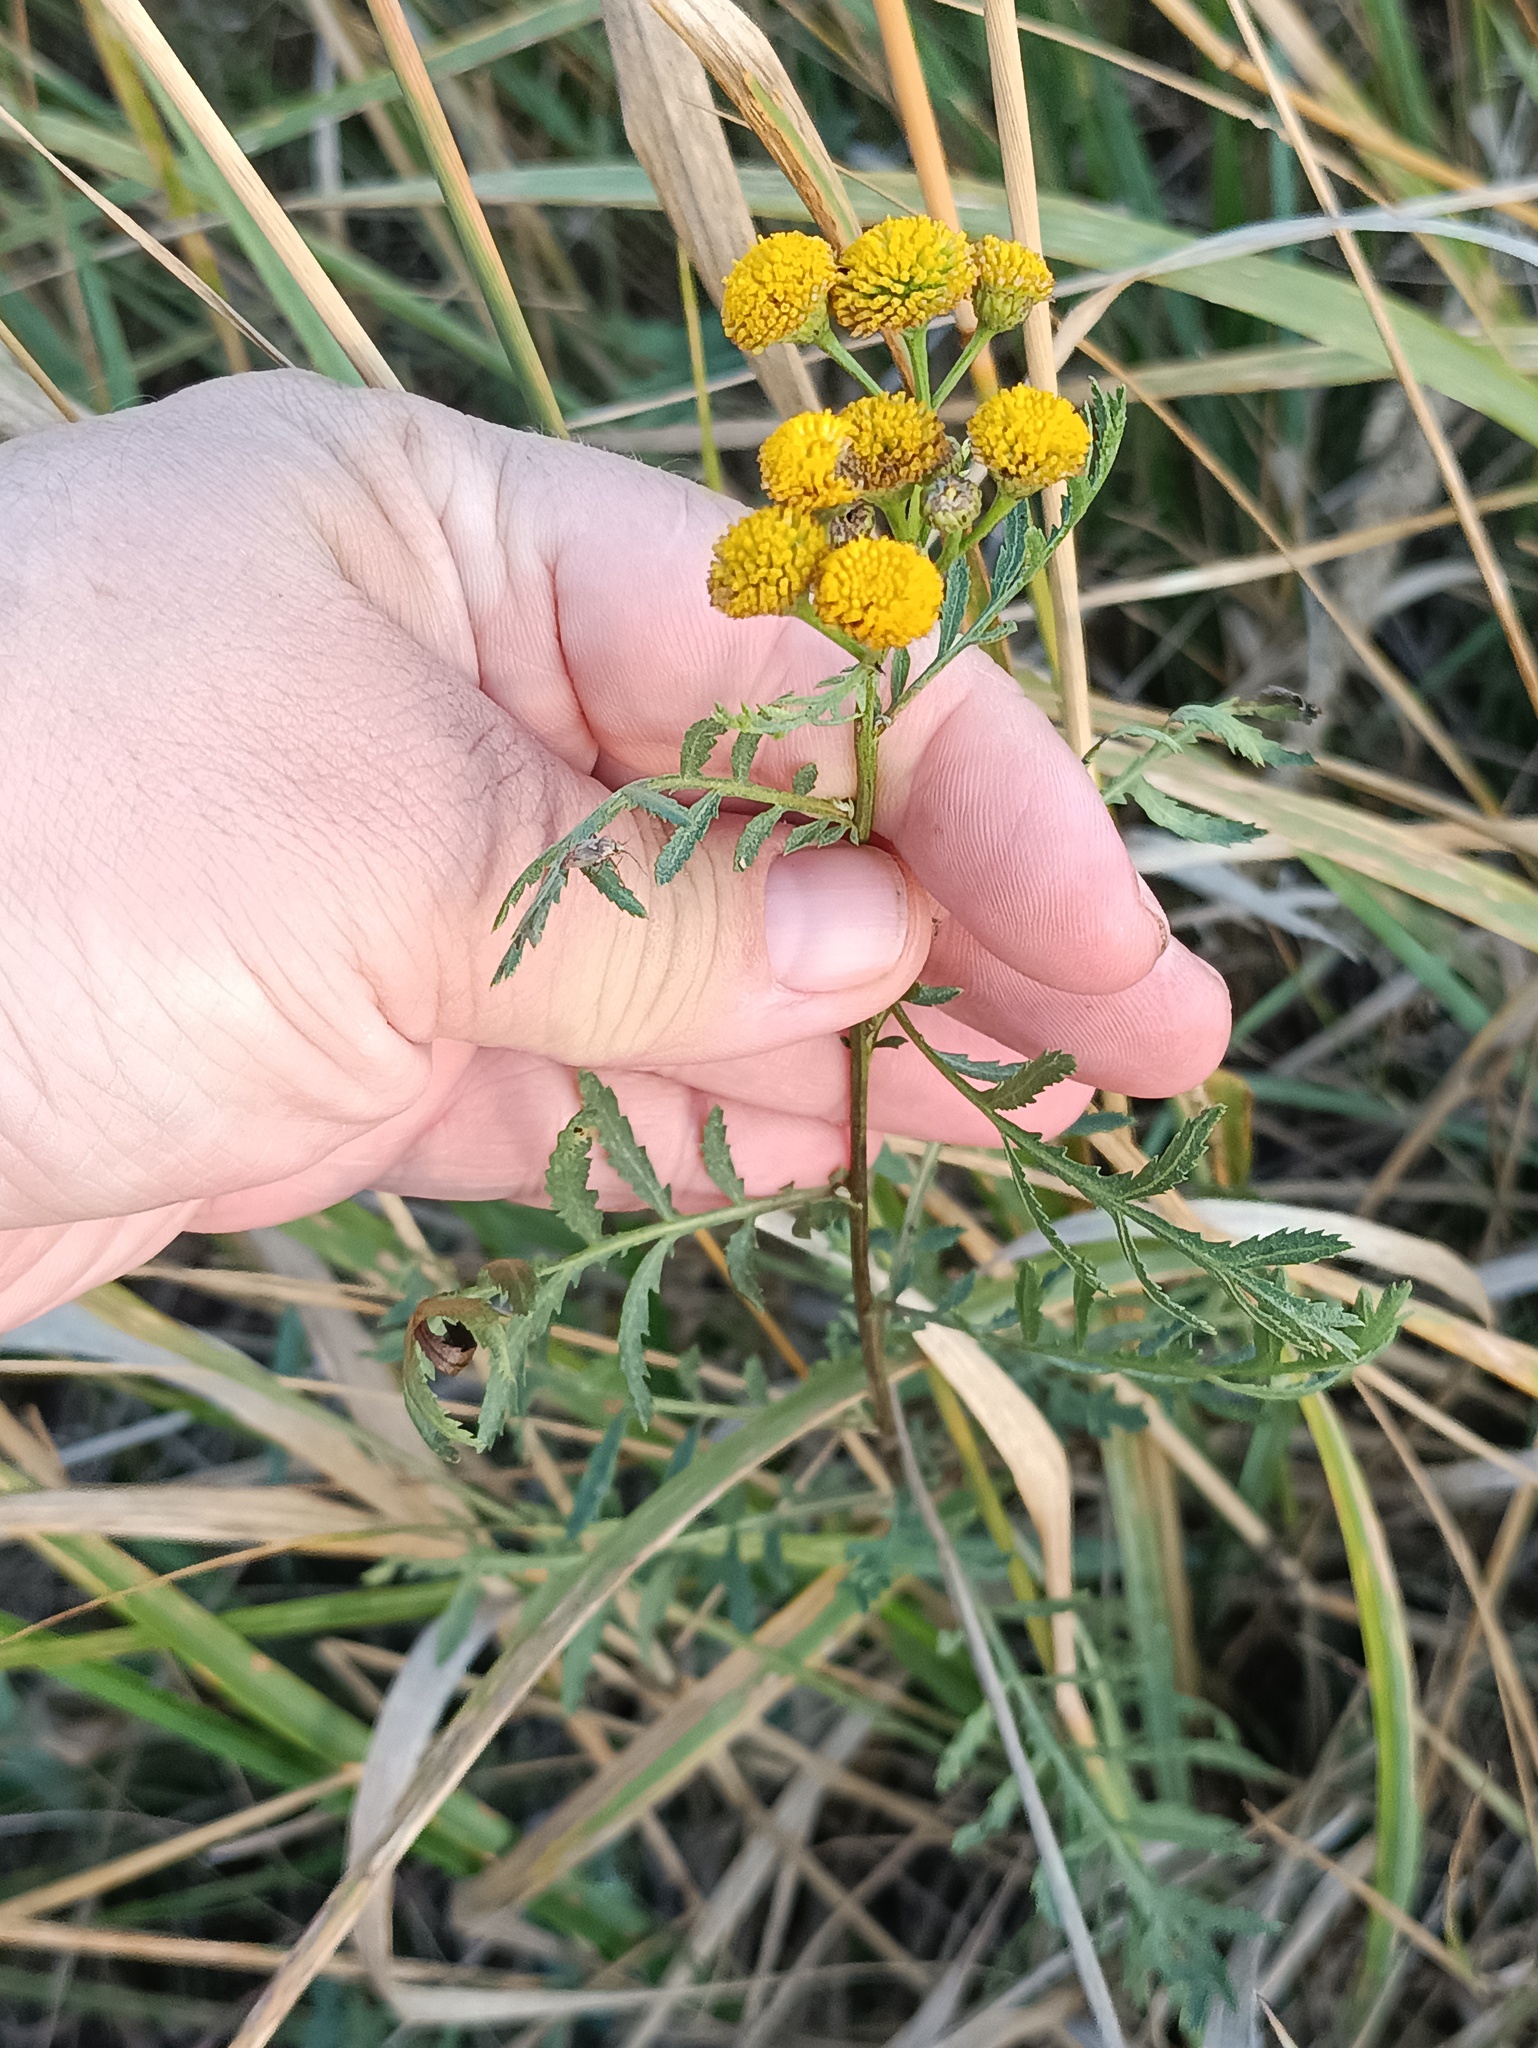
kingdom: Plantae
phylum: Tracheophyta
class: Magnoliopsida
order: Asterales
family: Asteraceae
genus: Tanacetum
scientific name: Tanacetum vulgare
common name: Common tansy
